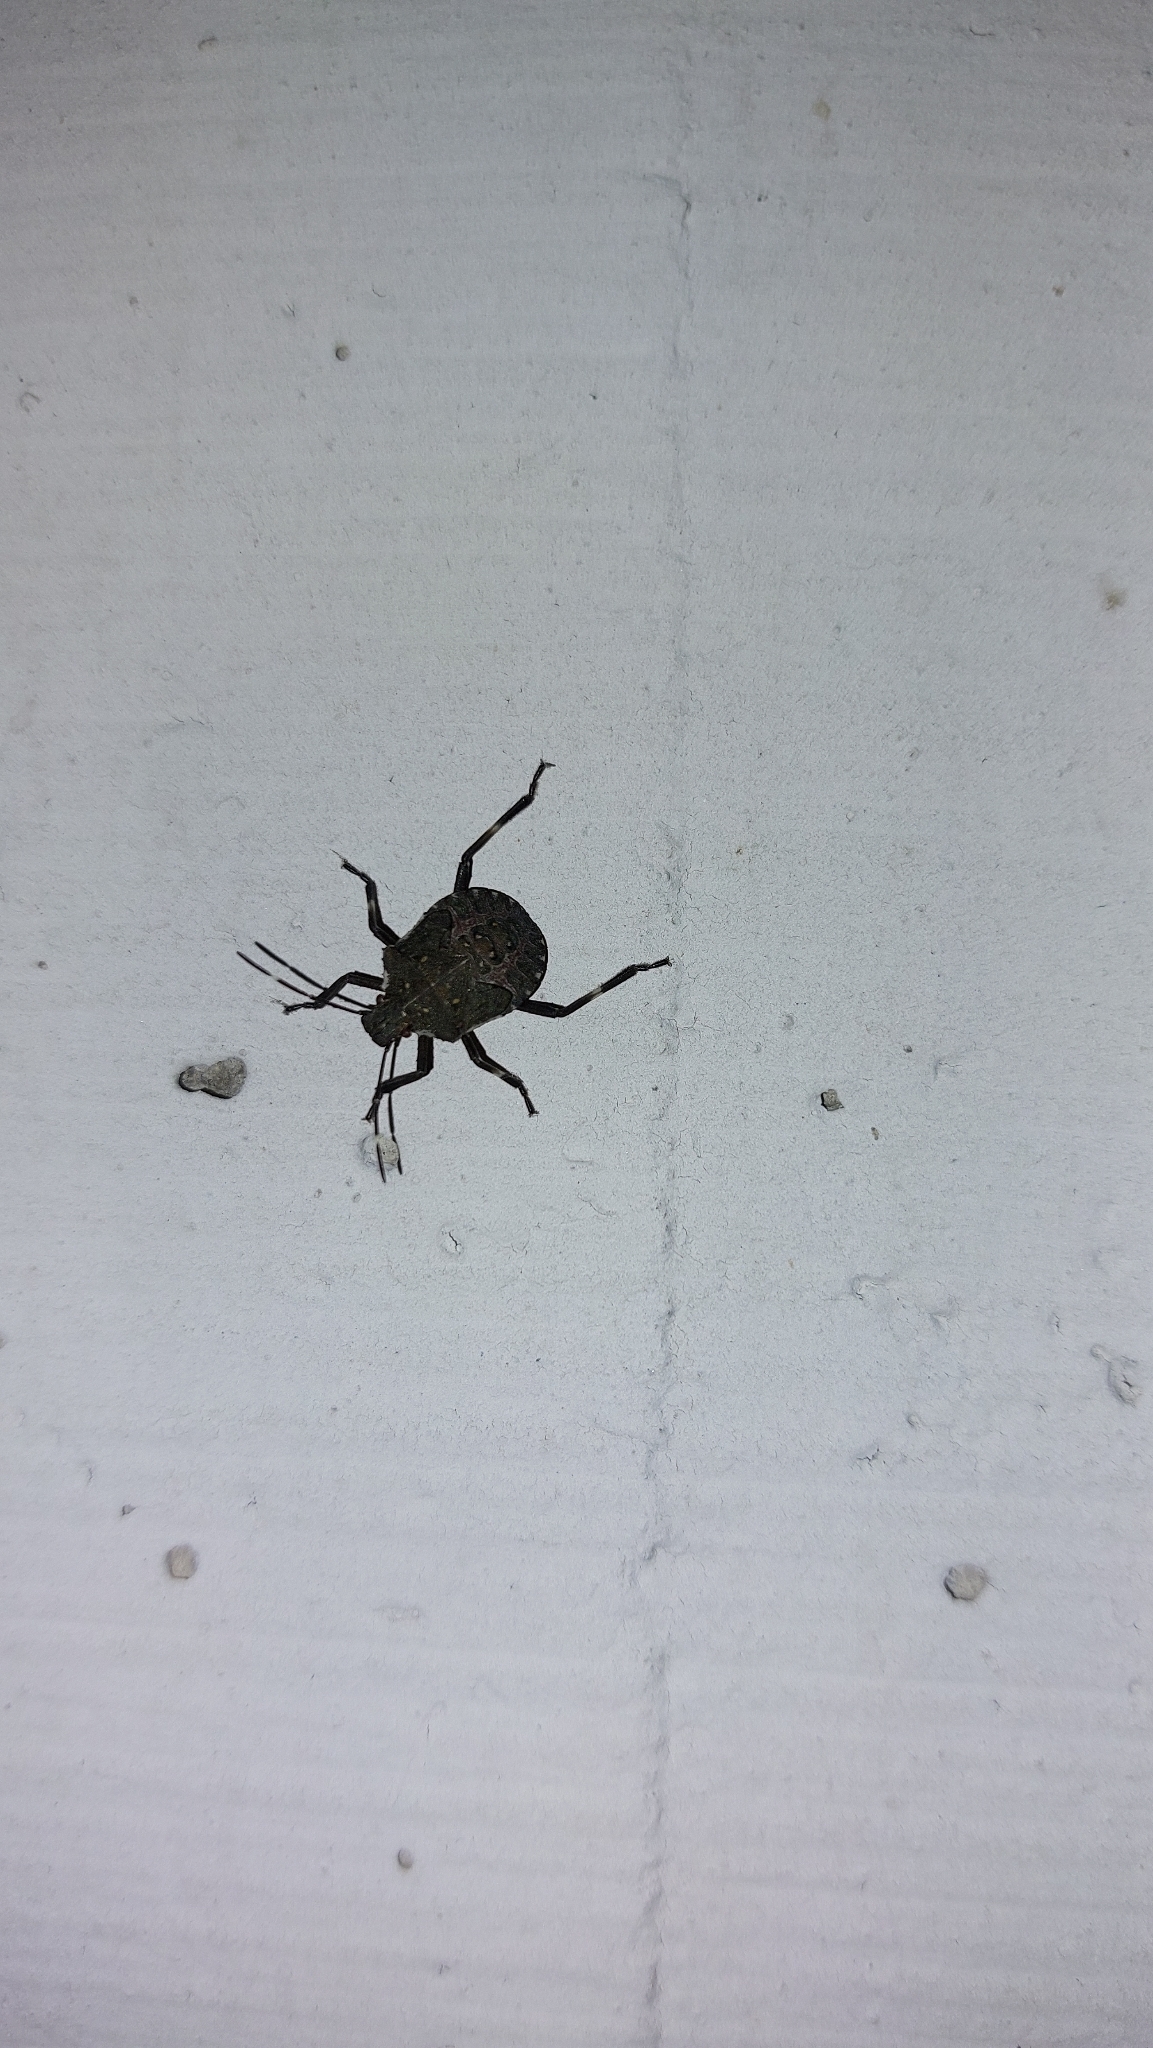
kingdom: Animalia
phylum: Arthropoda
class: Insecta
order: Hemiptera
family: Pentatomidae
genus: Halyomorpha
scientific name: Halyomorpha halys
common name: Brown marmorated stink bug
